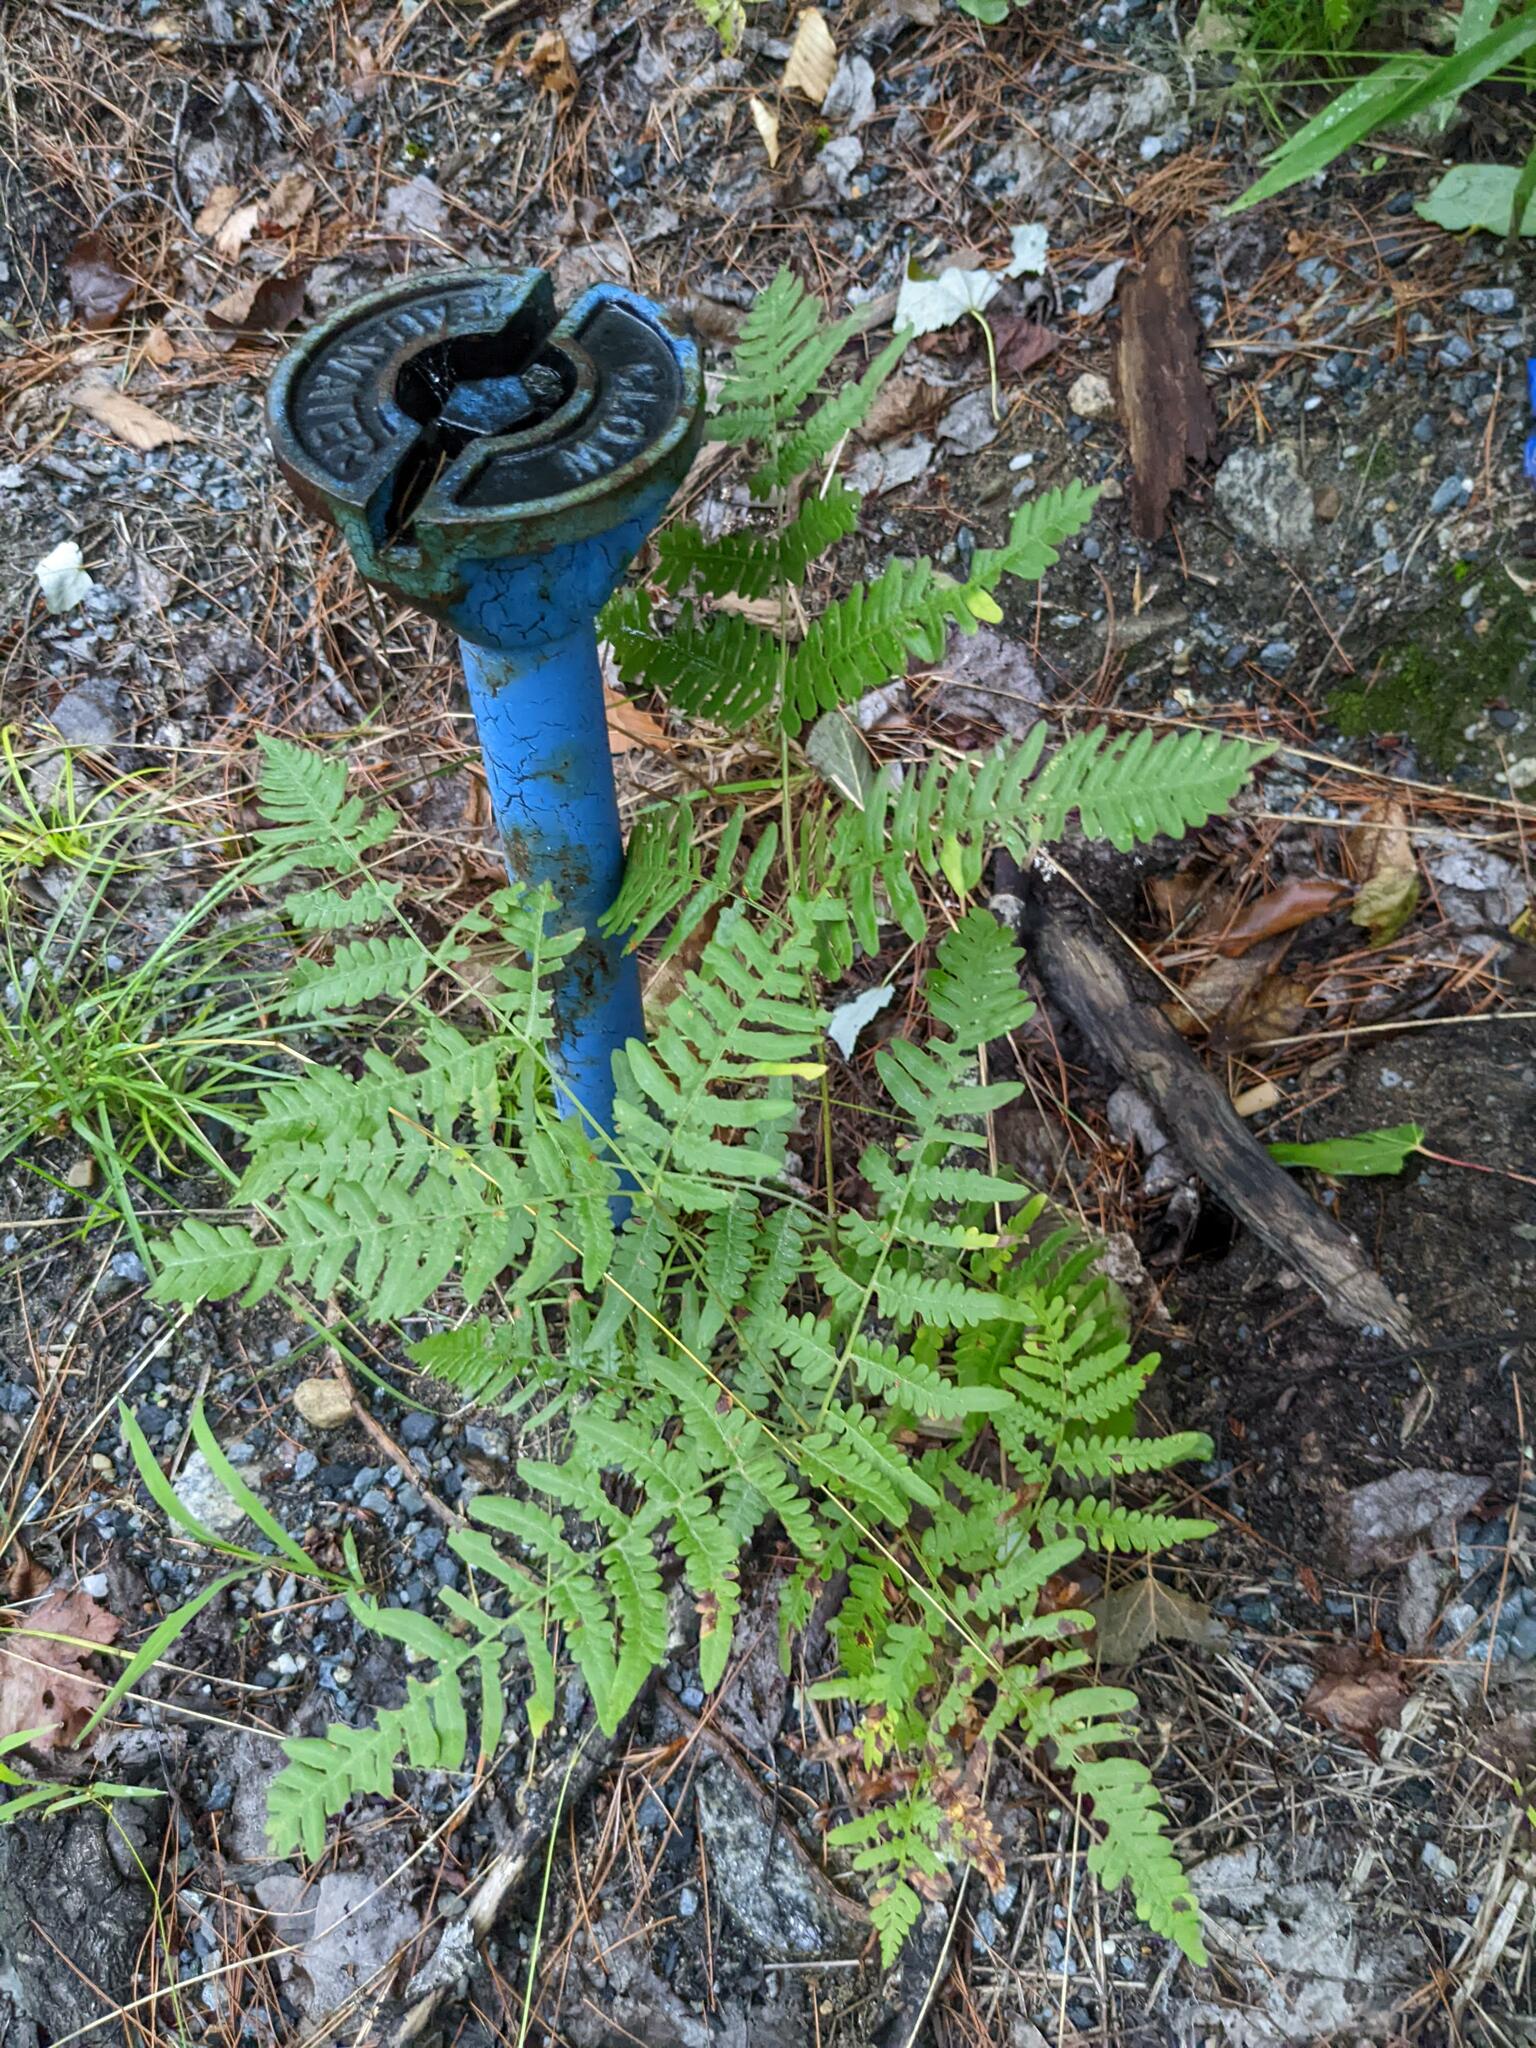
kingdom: Plantae
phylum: Tracheophyta
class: Polypodiopsida
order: Polypodiales
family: Dennstaedtiaceae
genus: Pteridium
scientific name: Pteridium aquilinum
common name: Bracken
